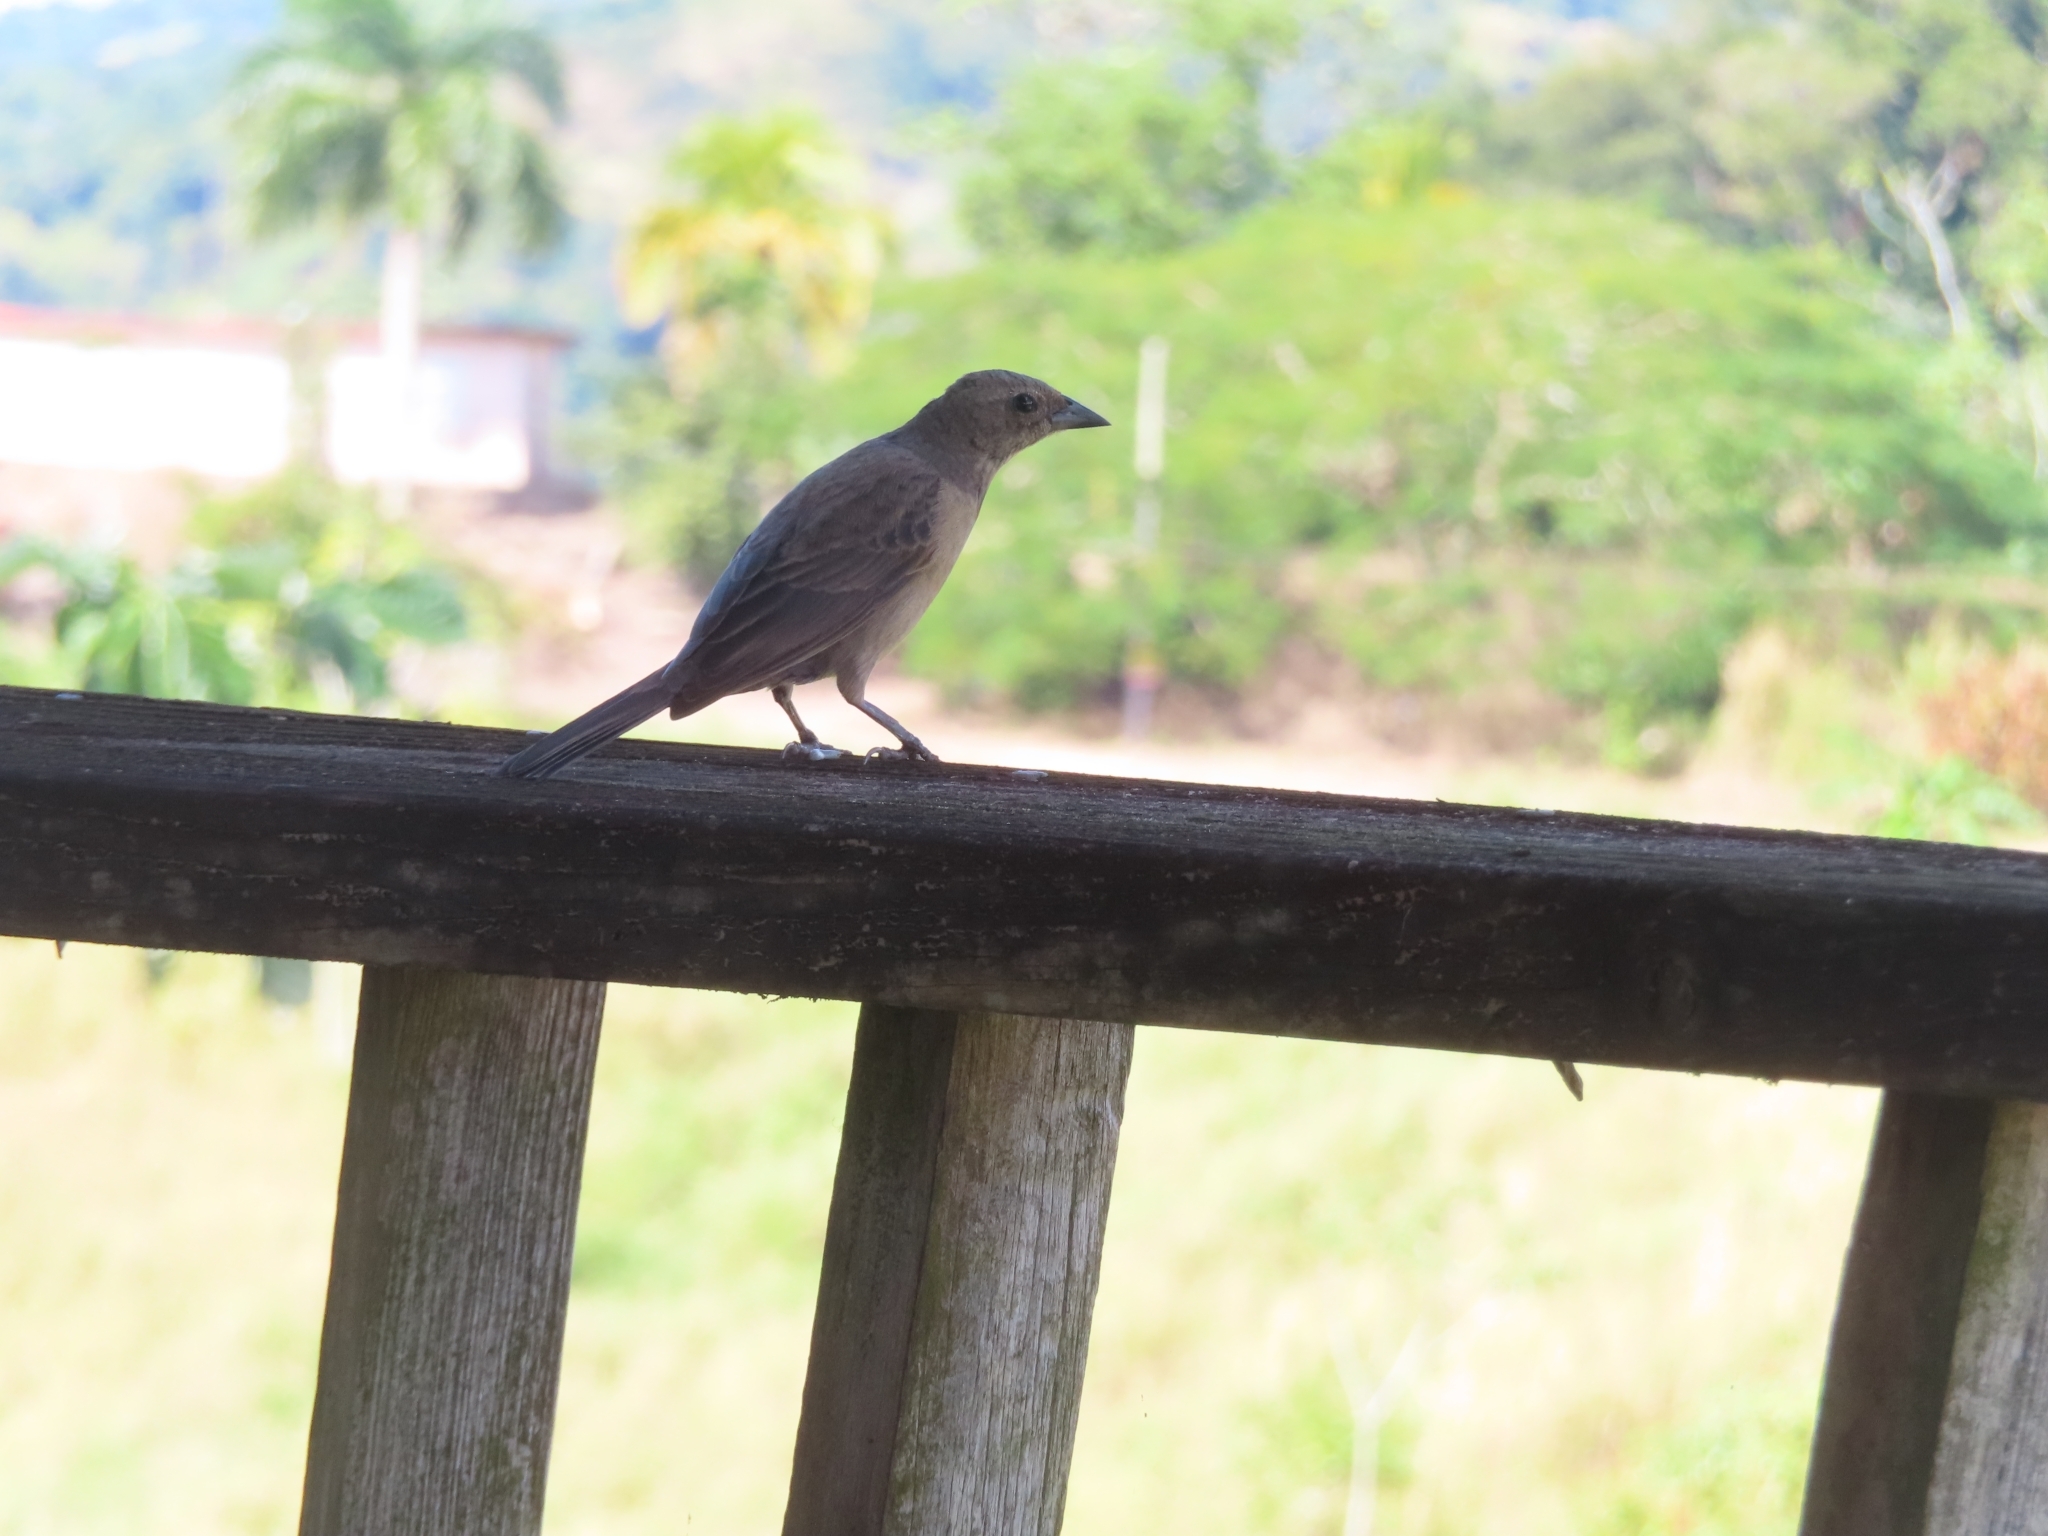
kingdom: Animalia
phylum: Chordata
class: Aves
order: Passeriformes
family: Icteridae
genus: Molothrus
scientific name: Molothrus bonariensis
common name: Shiny cowbird
